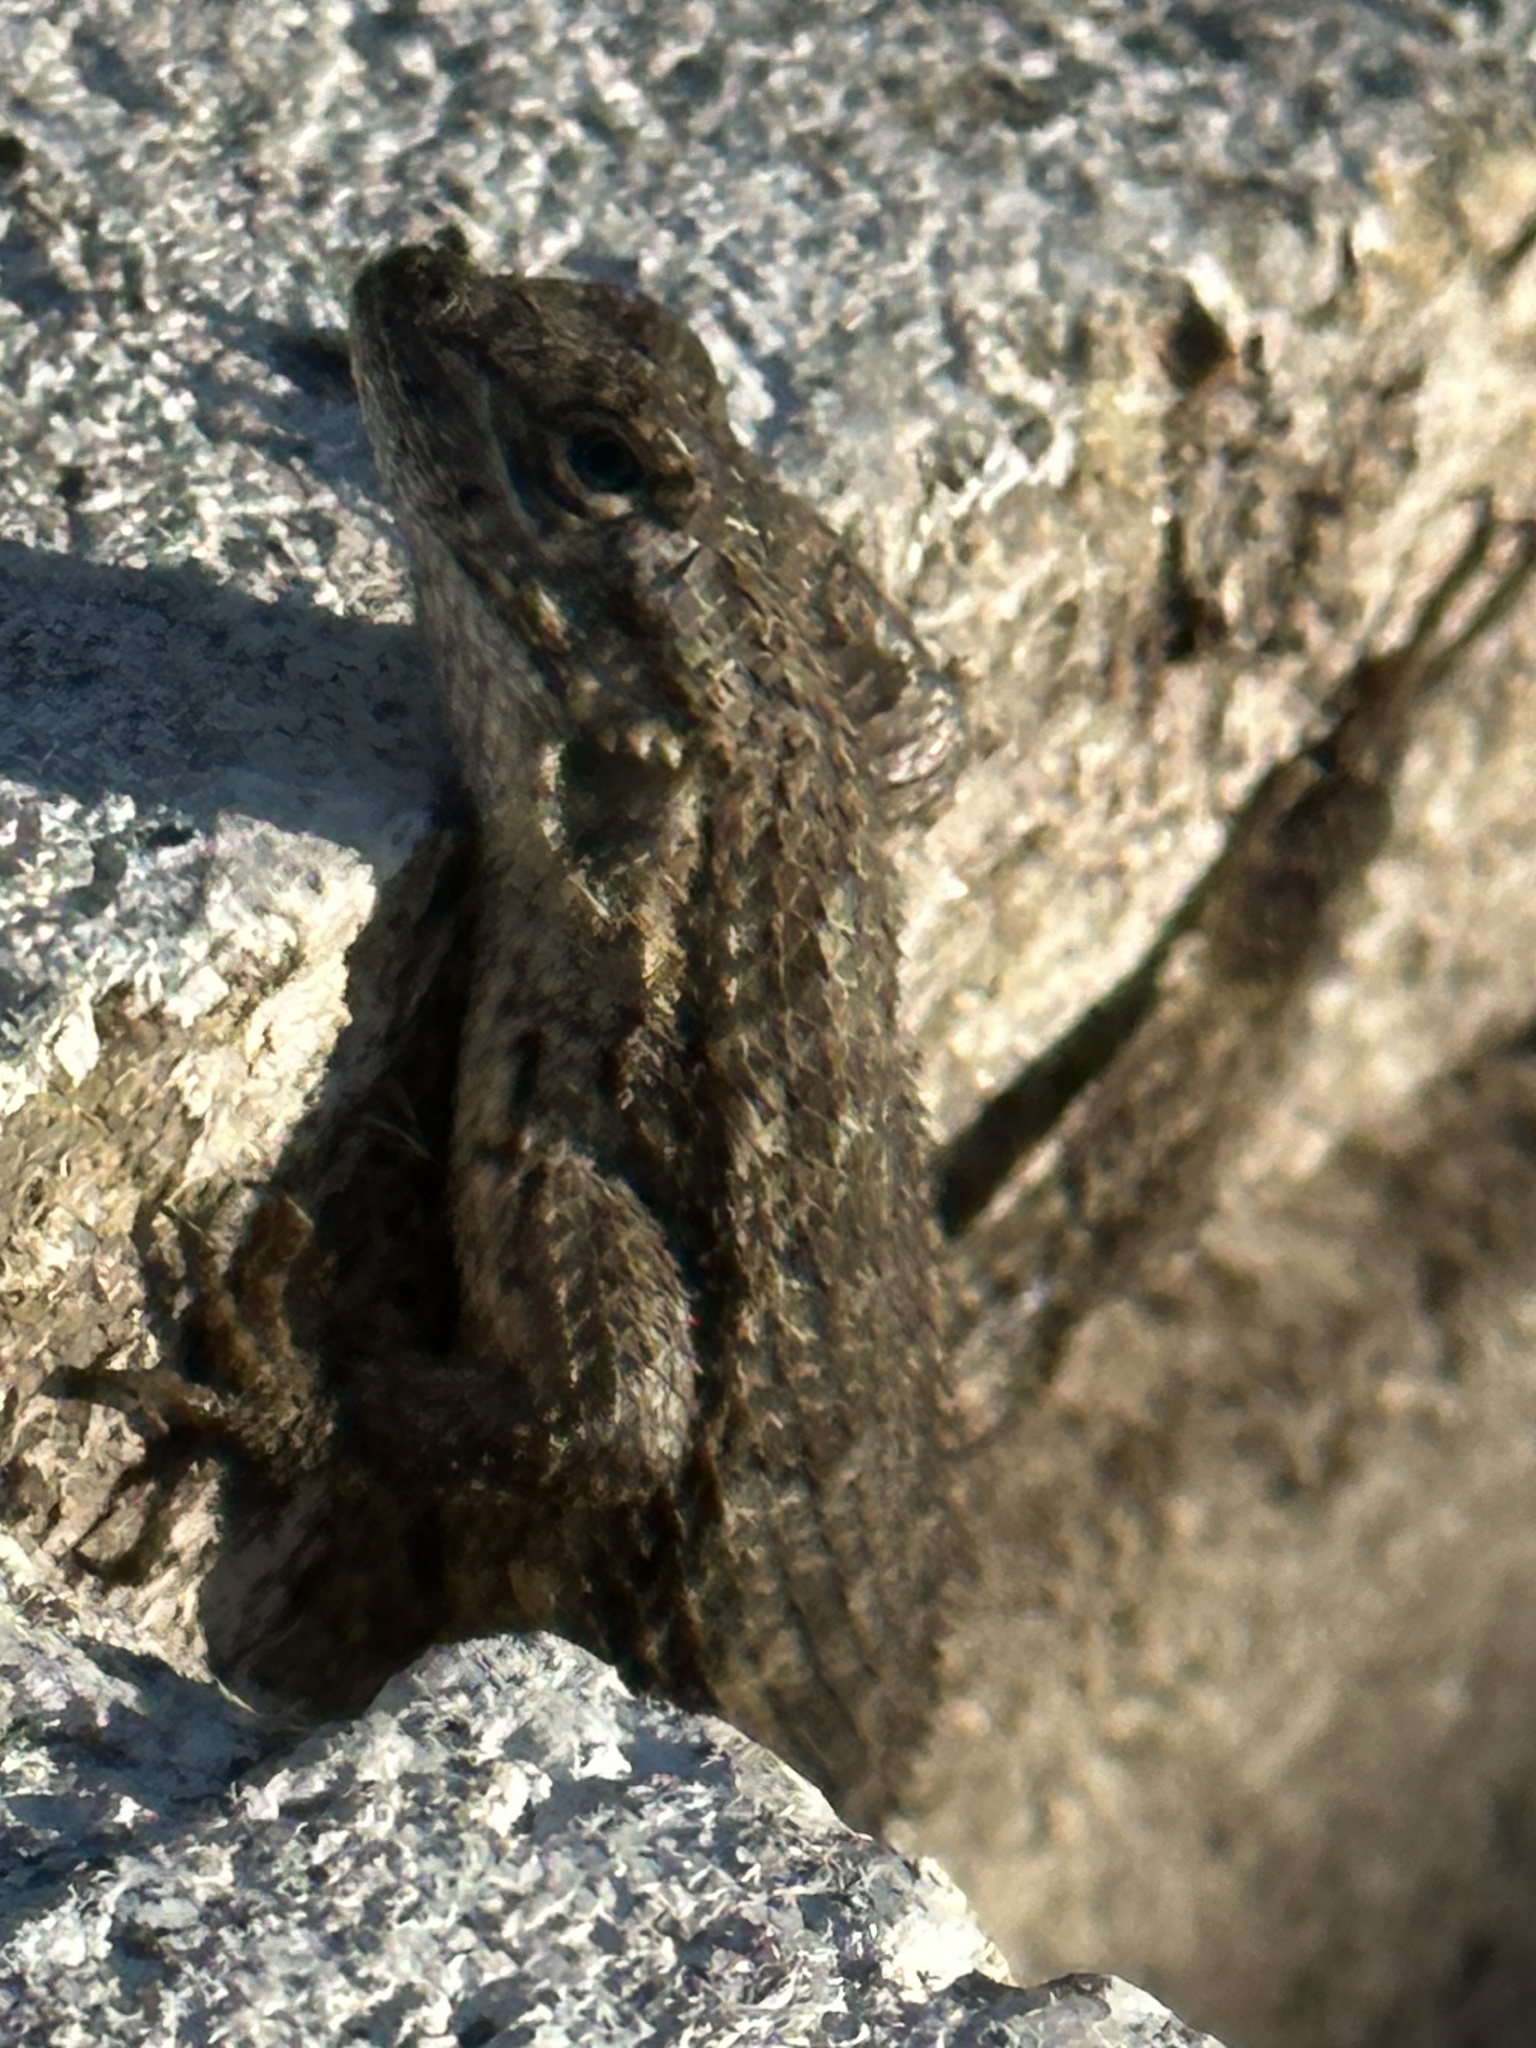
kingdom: Animalia
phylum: Chordata
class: Squamata
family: Phrynosomatidae
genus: Sceloporus
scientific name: Sceloporus occidentalis
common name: Western fence lizard
